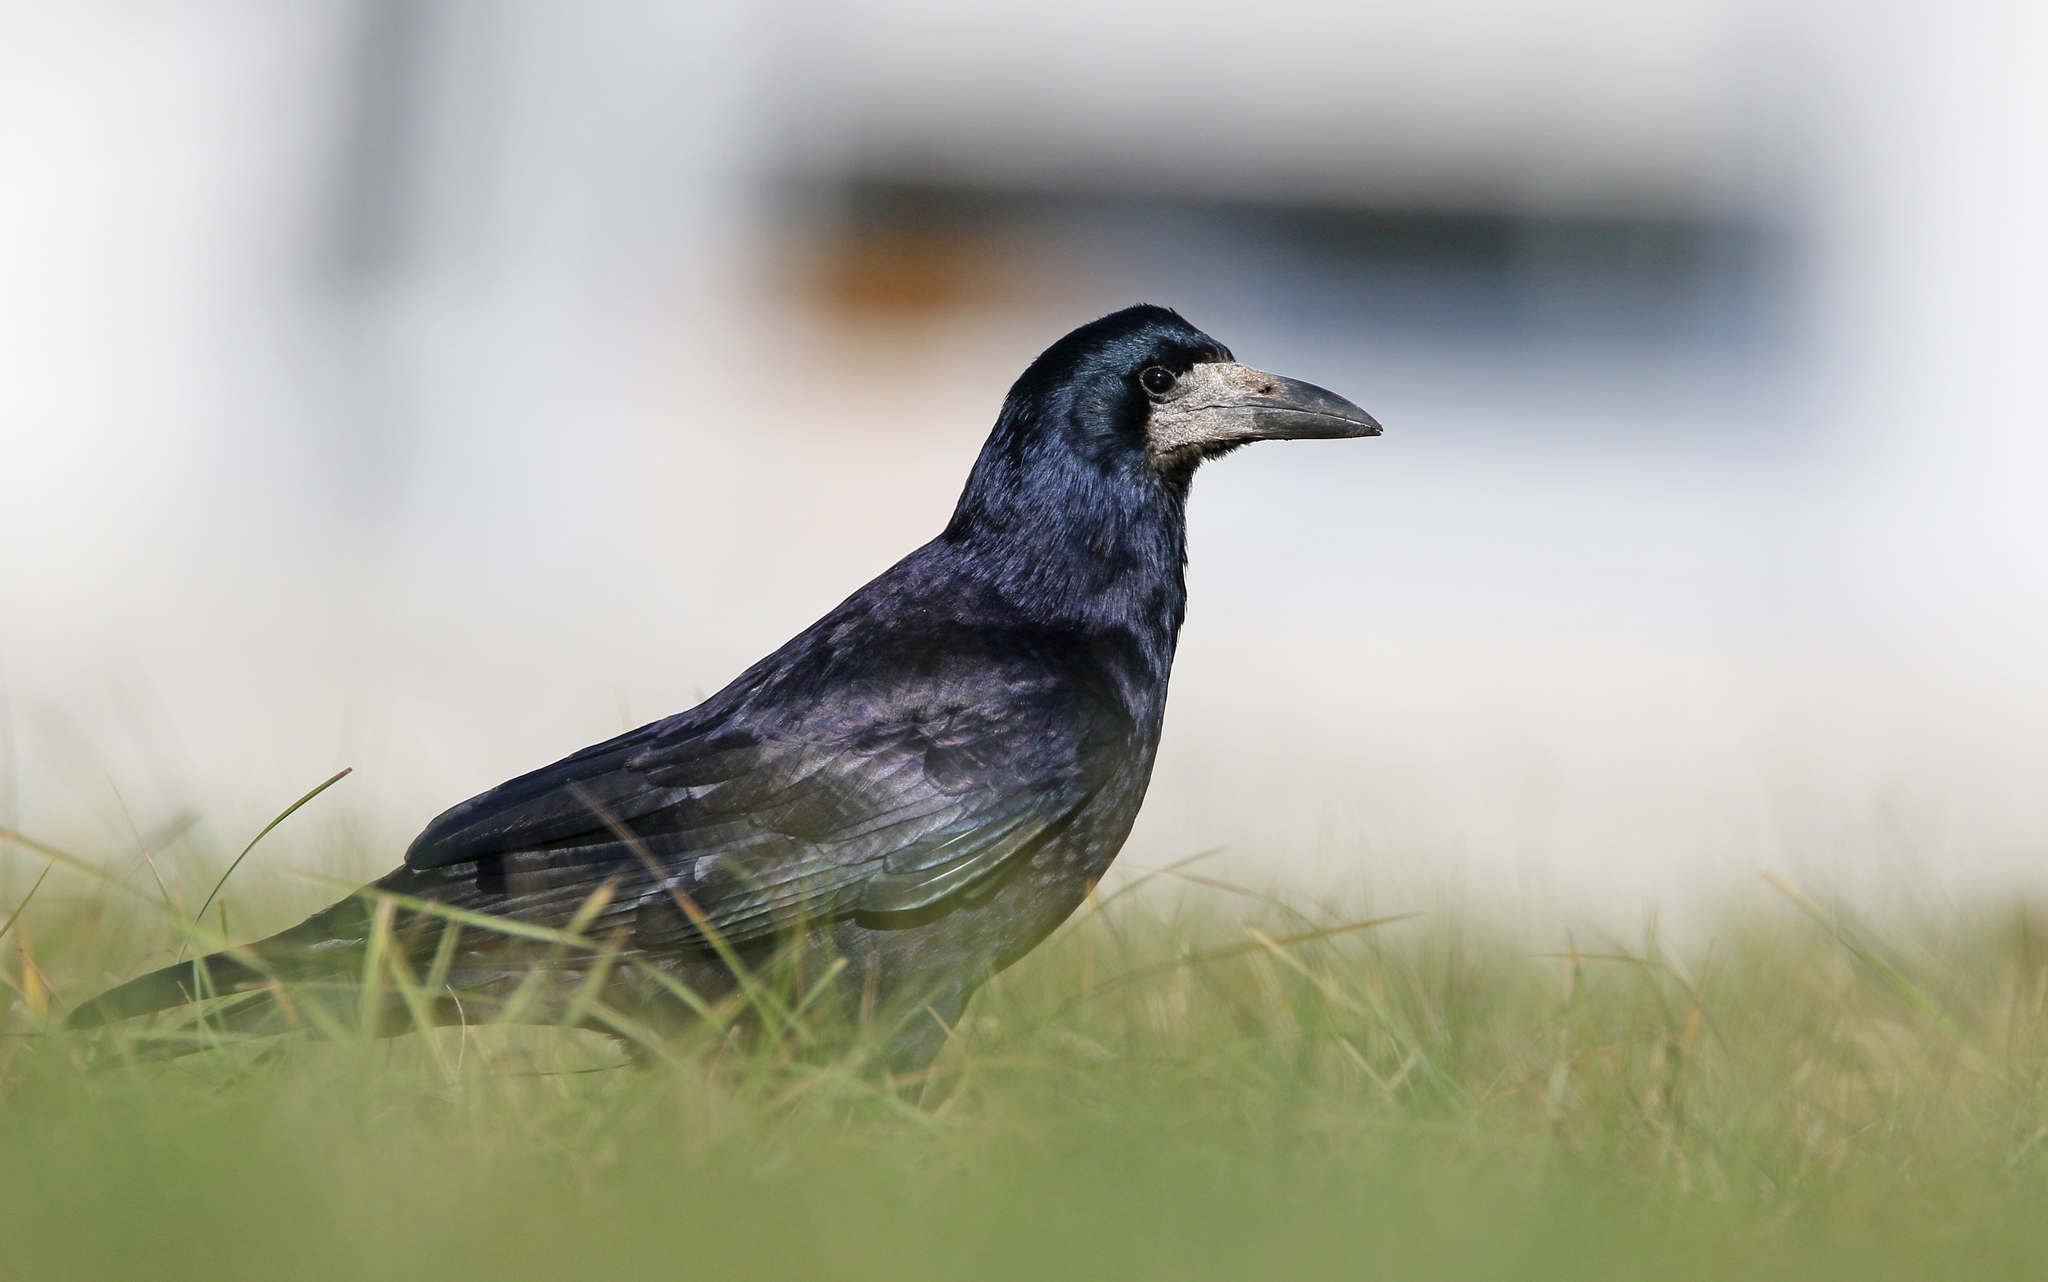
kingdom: Animalia
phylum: Chordata
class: Aves
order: Passeriformes
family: Corvidae
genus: Corvus
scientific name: Corvus frugilegus
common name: Rook
